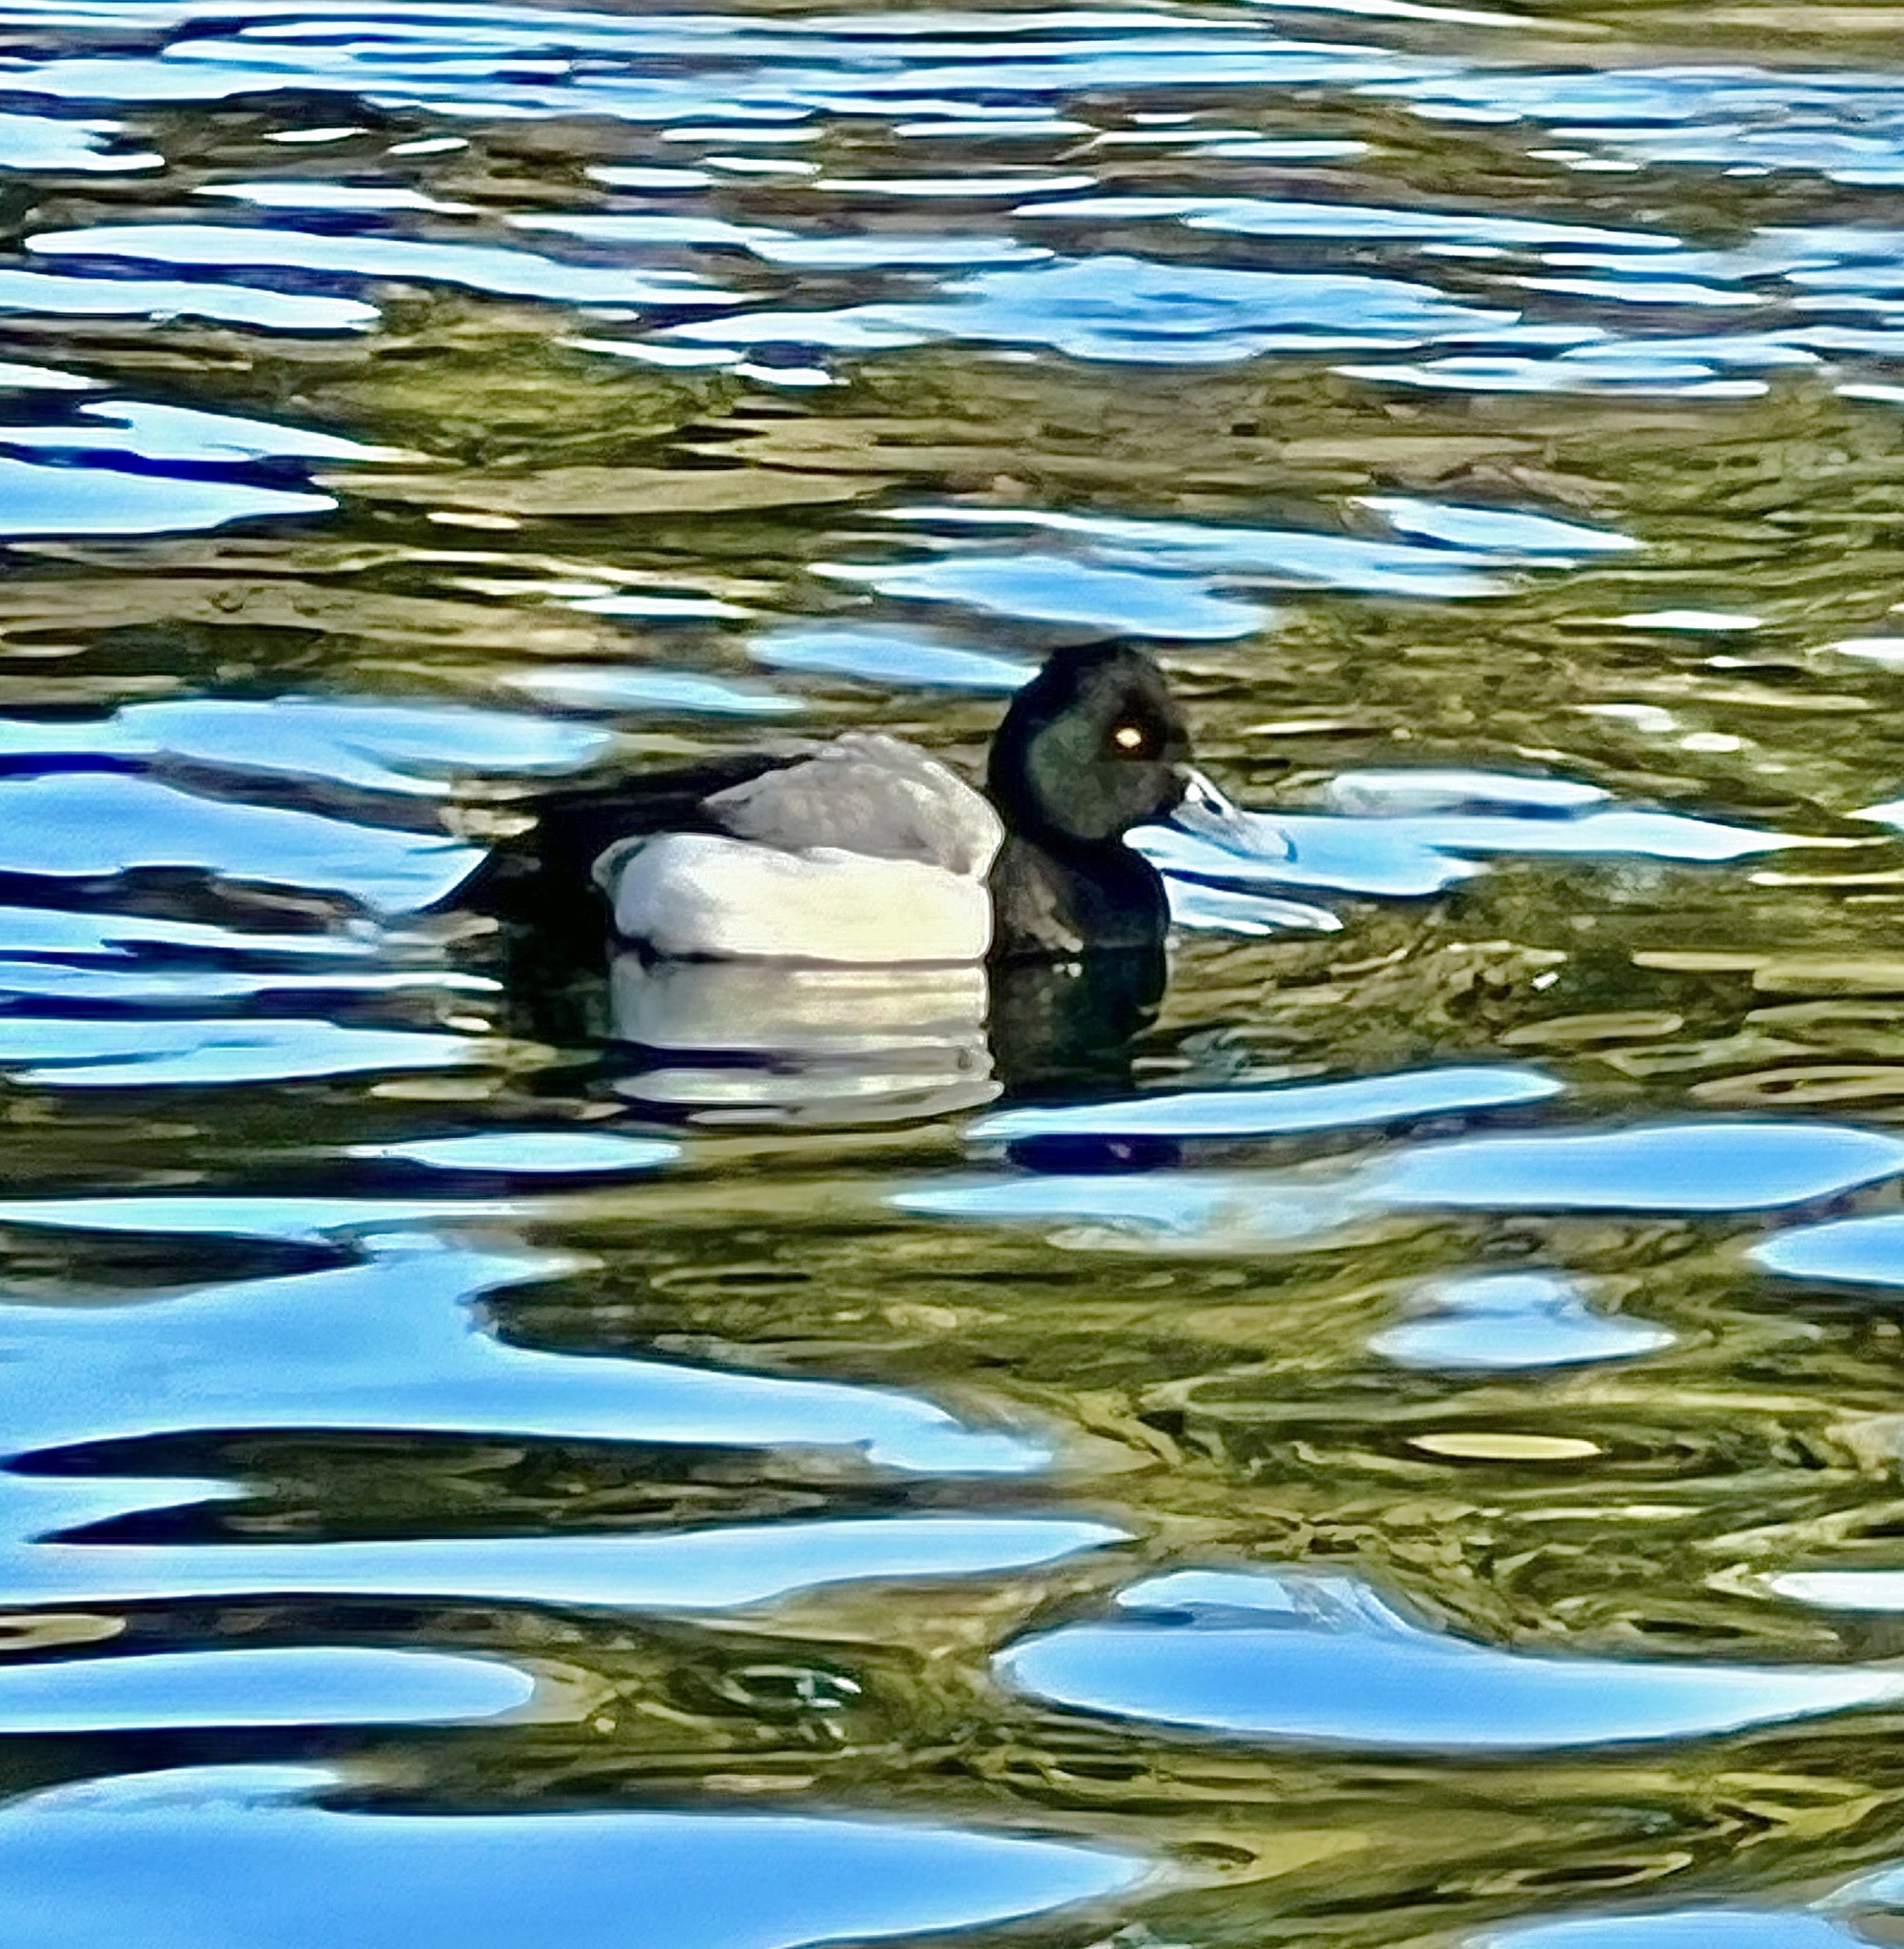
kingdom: Animalia
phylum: Chordata
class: Aves
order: Anseriformes
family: Anatidae
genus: Aythya
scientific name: Aythya affinis
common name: Lesser scaup
